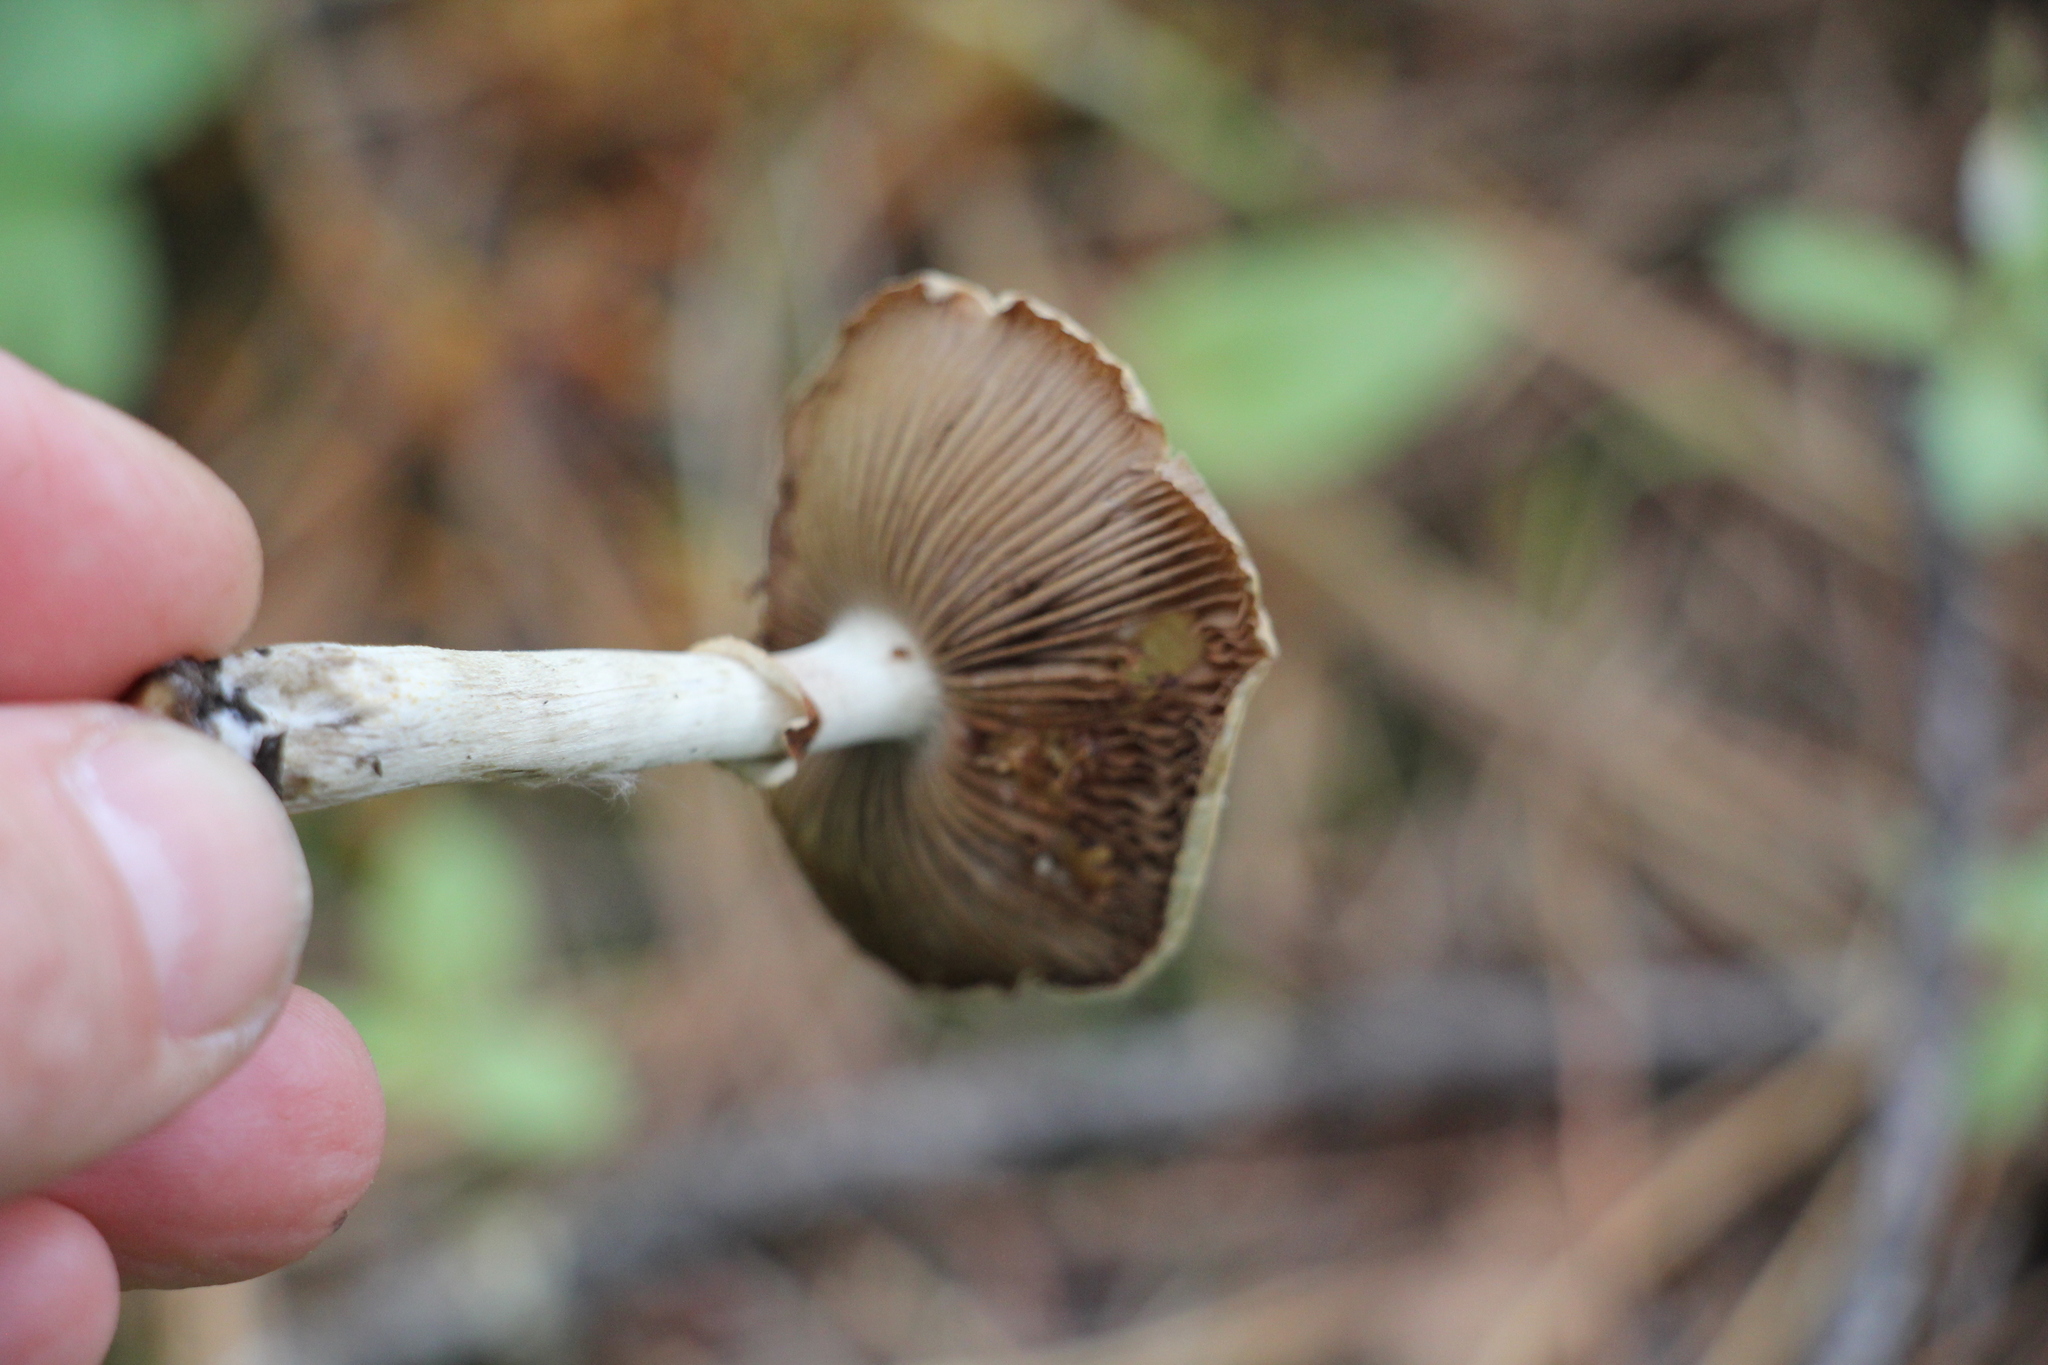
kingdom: Fungi
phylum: Basidiomycota
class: Agaricomycetes
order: Agaricales
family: Strophariaceae
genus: Agrocybe
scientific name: Agrocybe praecox
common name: Spring fieldcap
